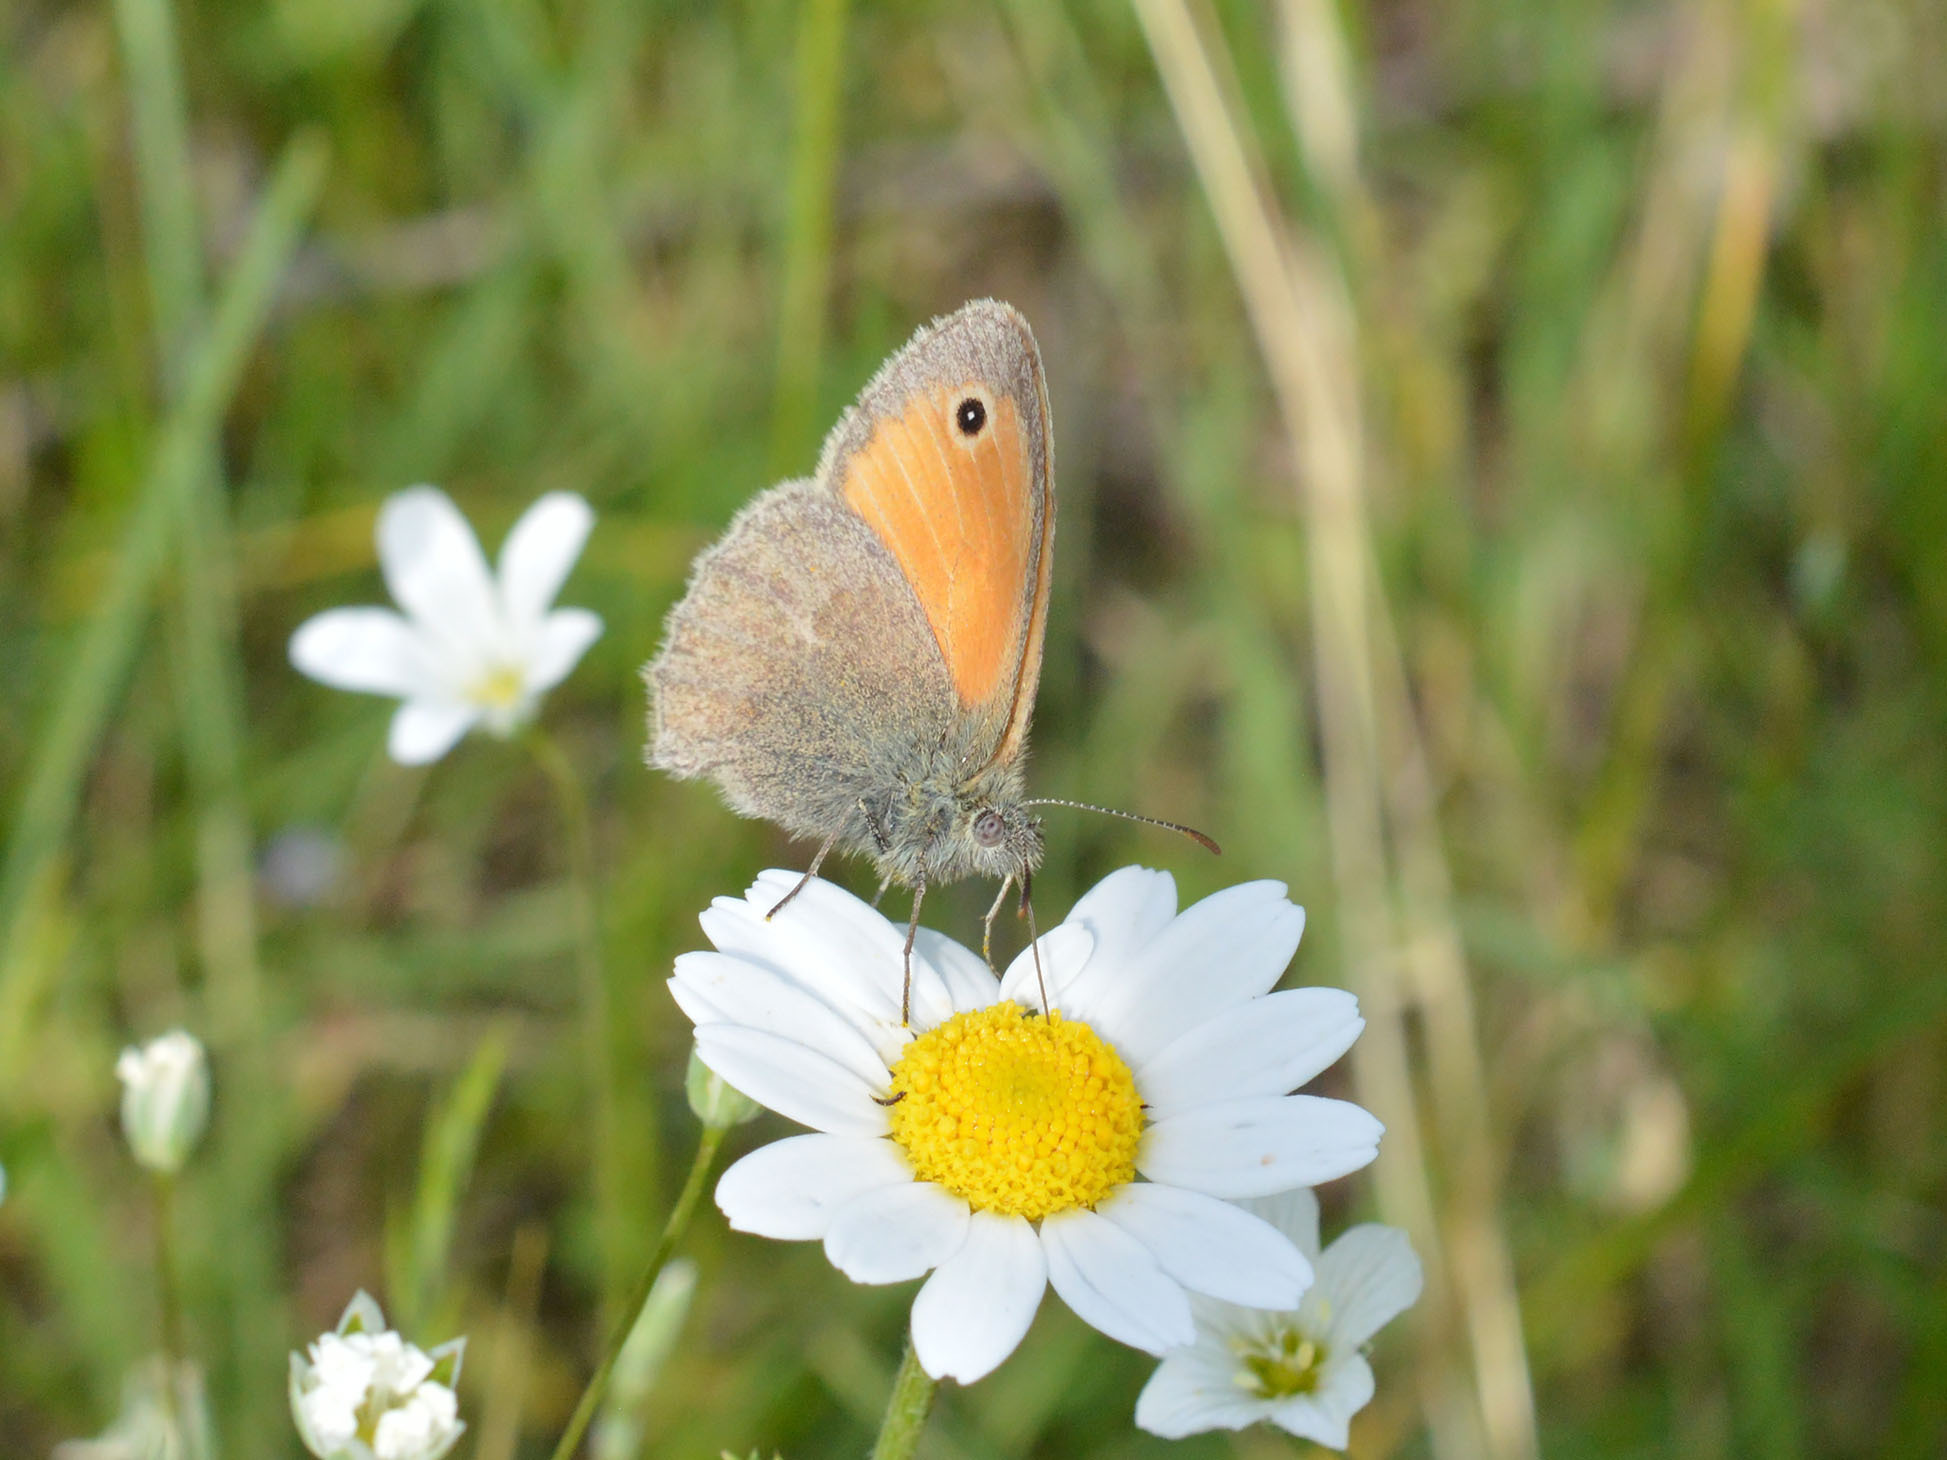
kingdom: Animalia
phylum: Arthropoda
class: Insecta
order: Lepidoptera
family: Nymphalidae
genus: Coenonympha
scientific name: Coenonympha pamphilus
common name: Small heath
